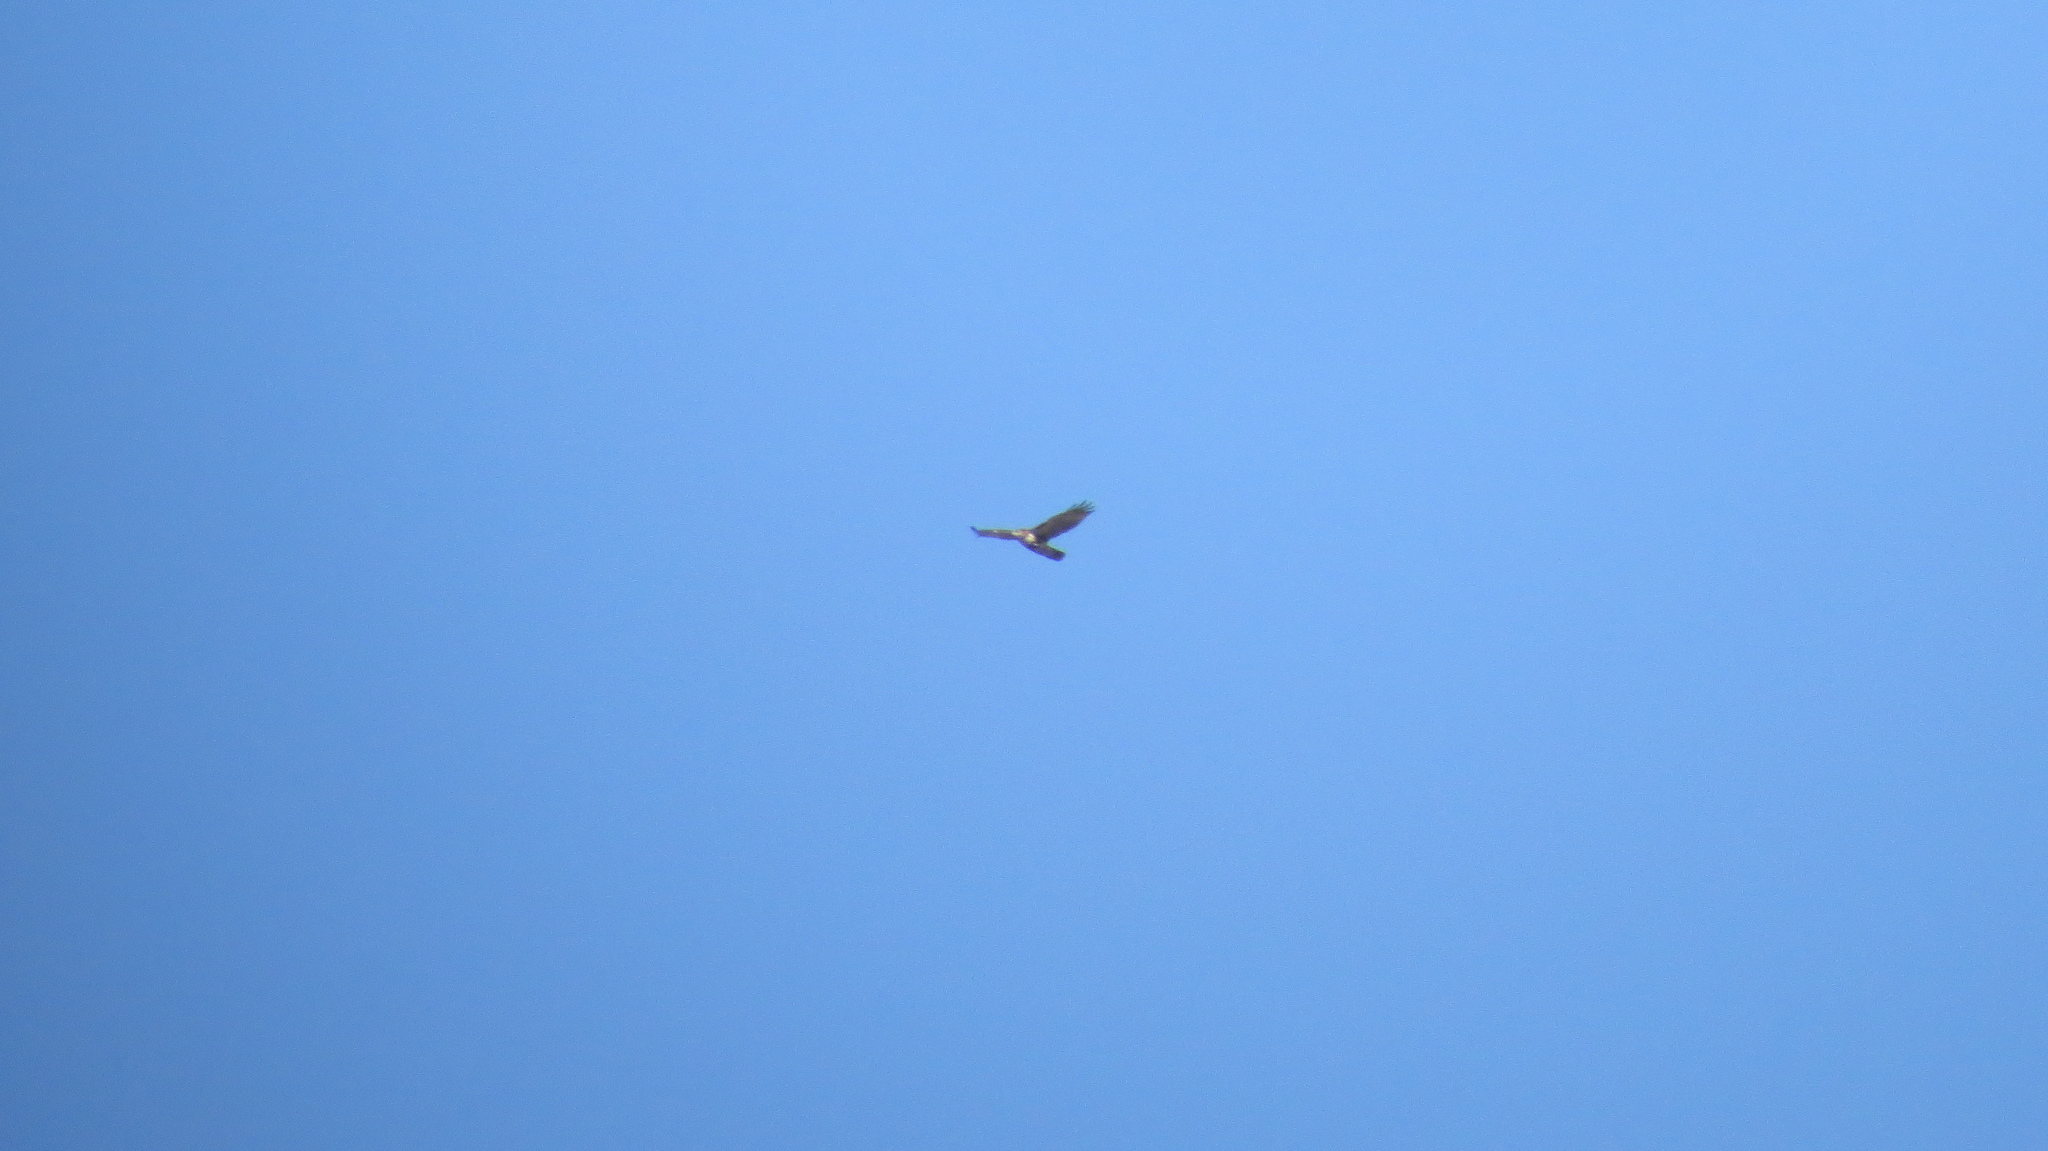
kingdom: Animalia
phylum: Chordata
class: Aves
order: Accipitriformes
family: Accipitridae
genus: Buteo
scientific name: Buteo jamaicensis
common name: Red-tailed hawk
